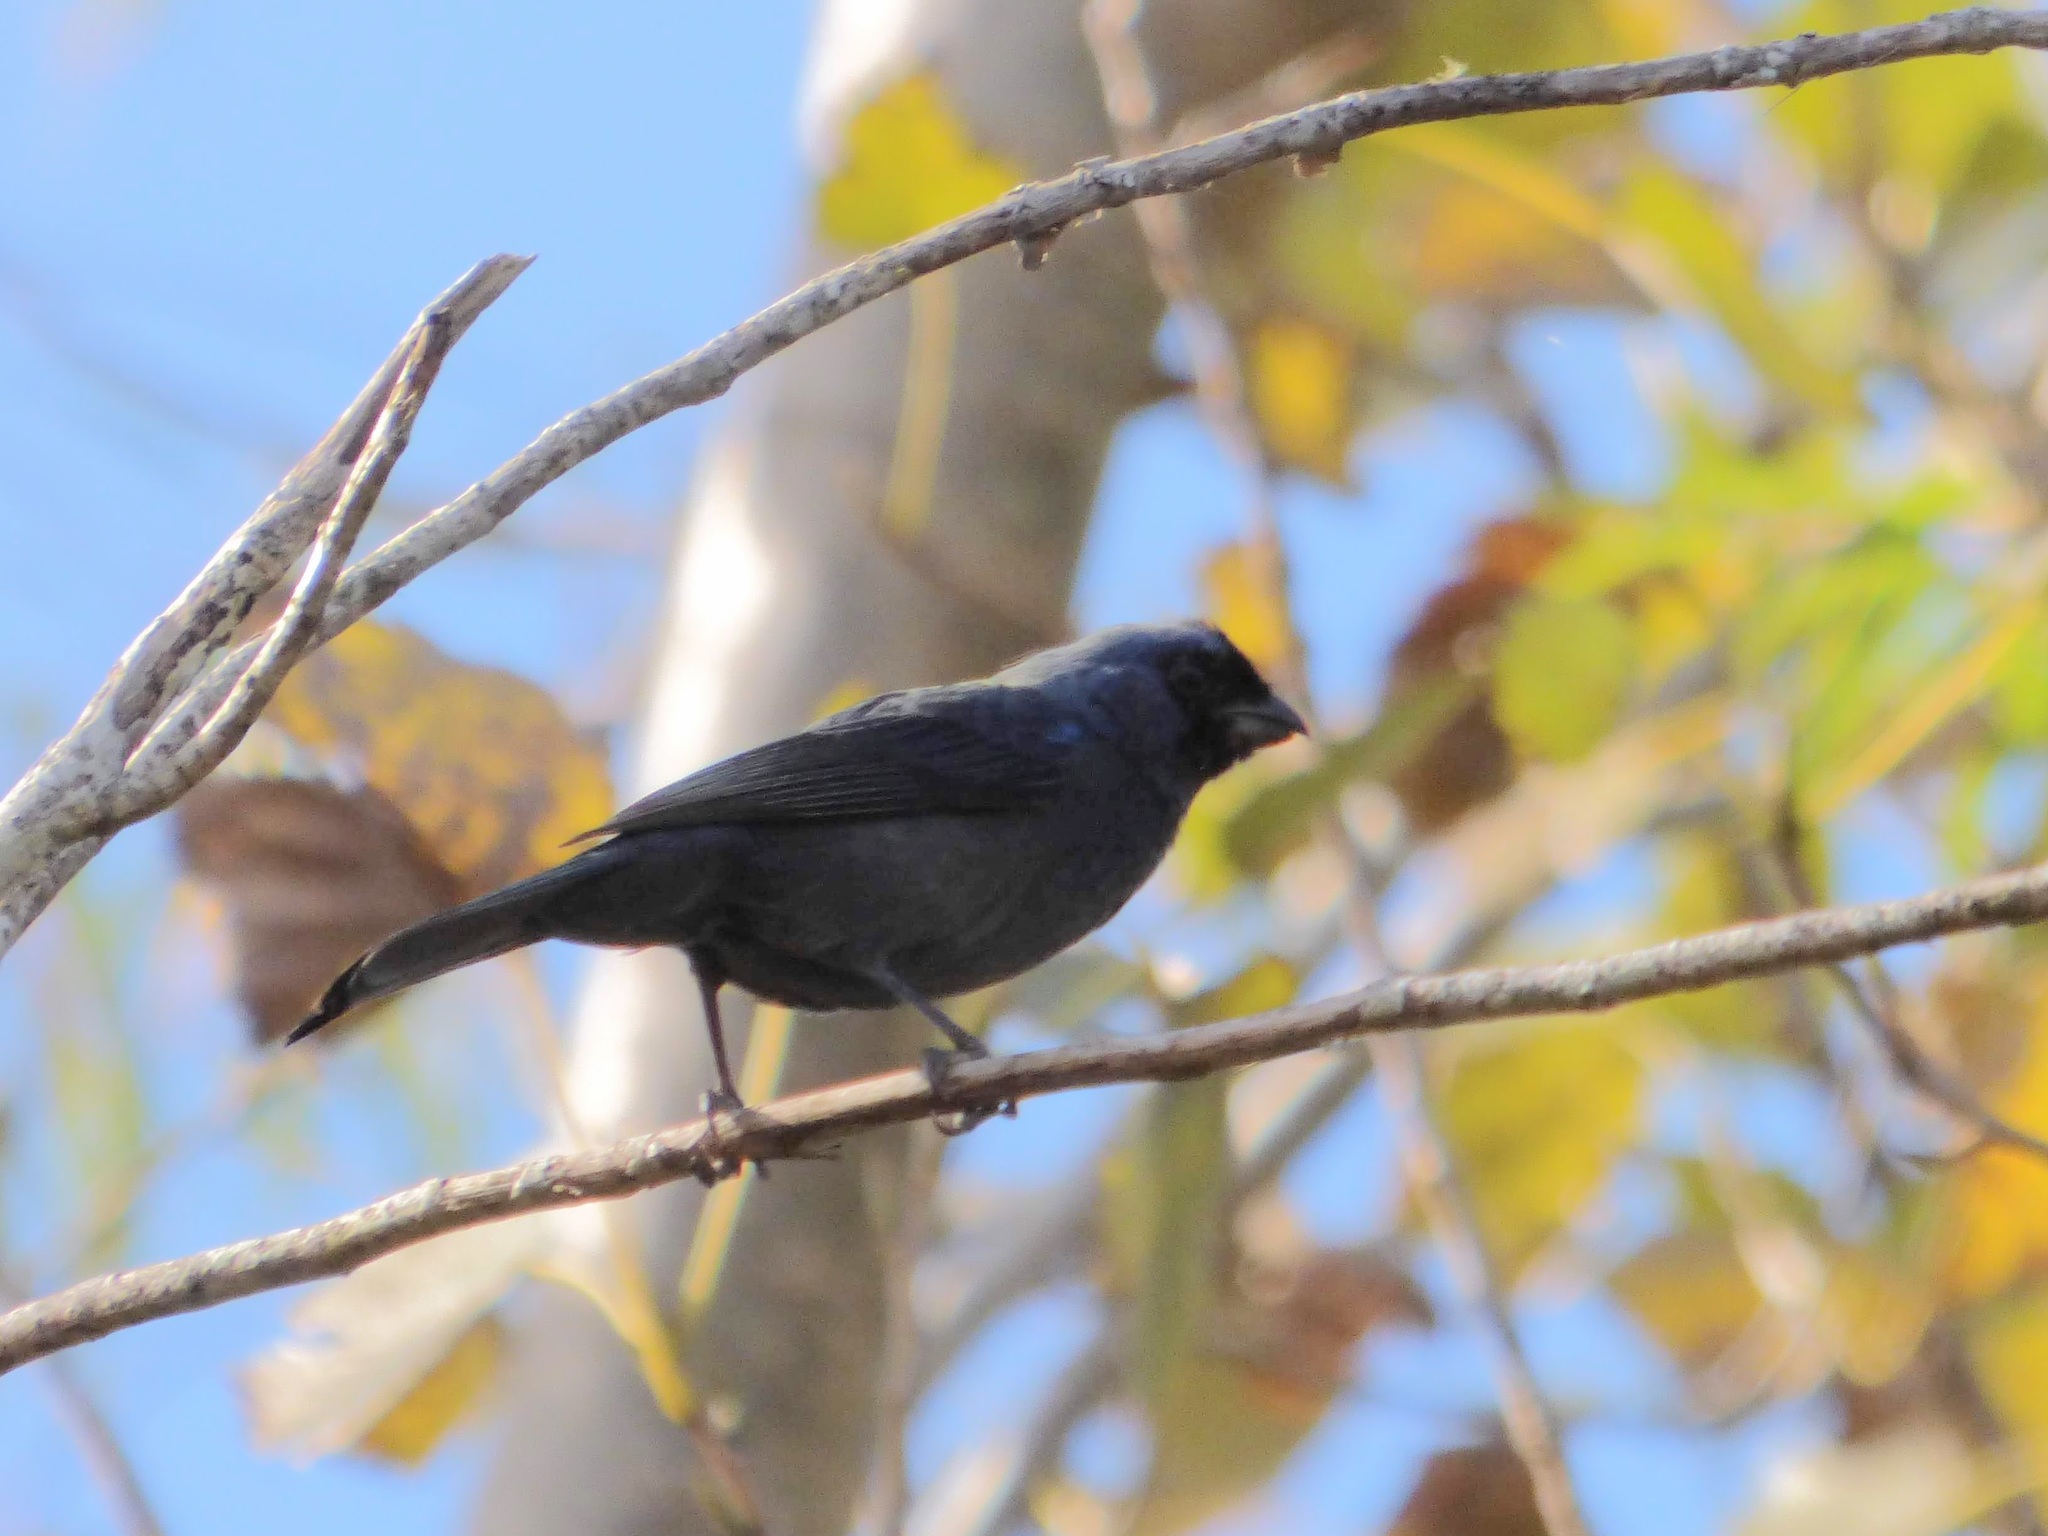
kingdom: Animalia
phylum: Chordata
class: Aves
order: Passeriformes
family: Thraupidae
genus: Stephanophorus
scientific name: Stephanophorus diadematus
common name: Diademed tanager
